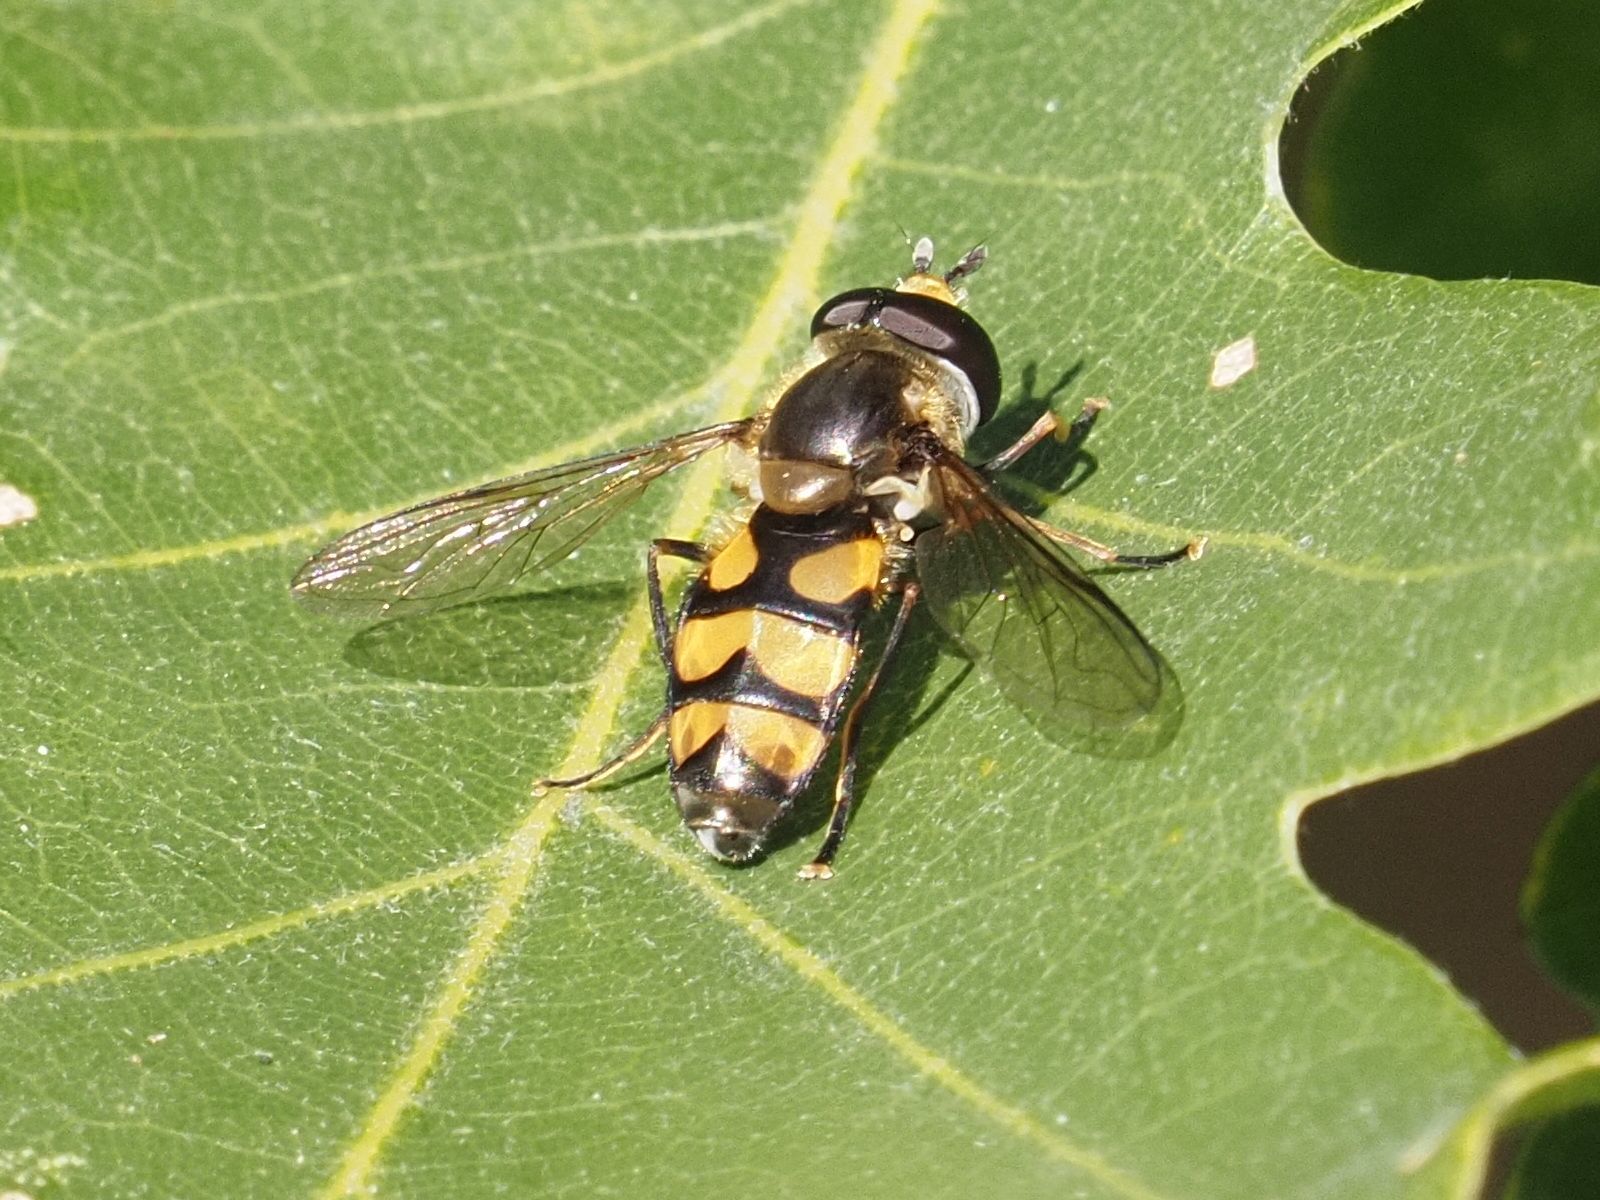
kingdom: Animalia
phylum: Arthropoda
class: Insecta
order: Diptera
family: Syrphidae
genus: Didea
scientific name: Didea fasciata
